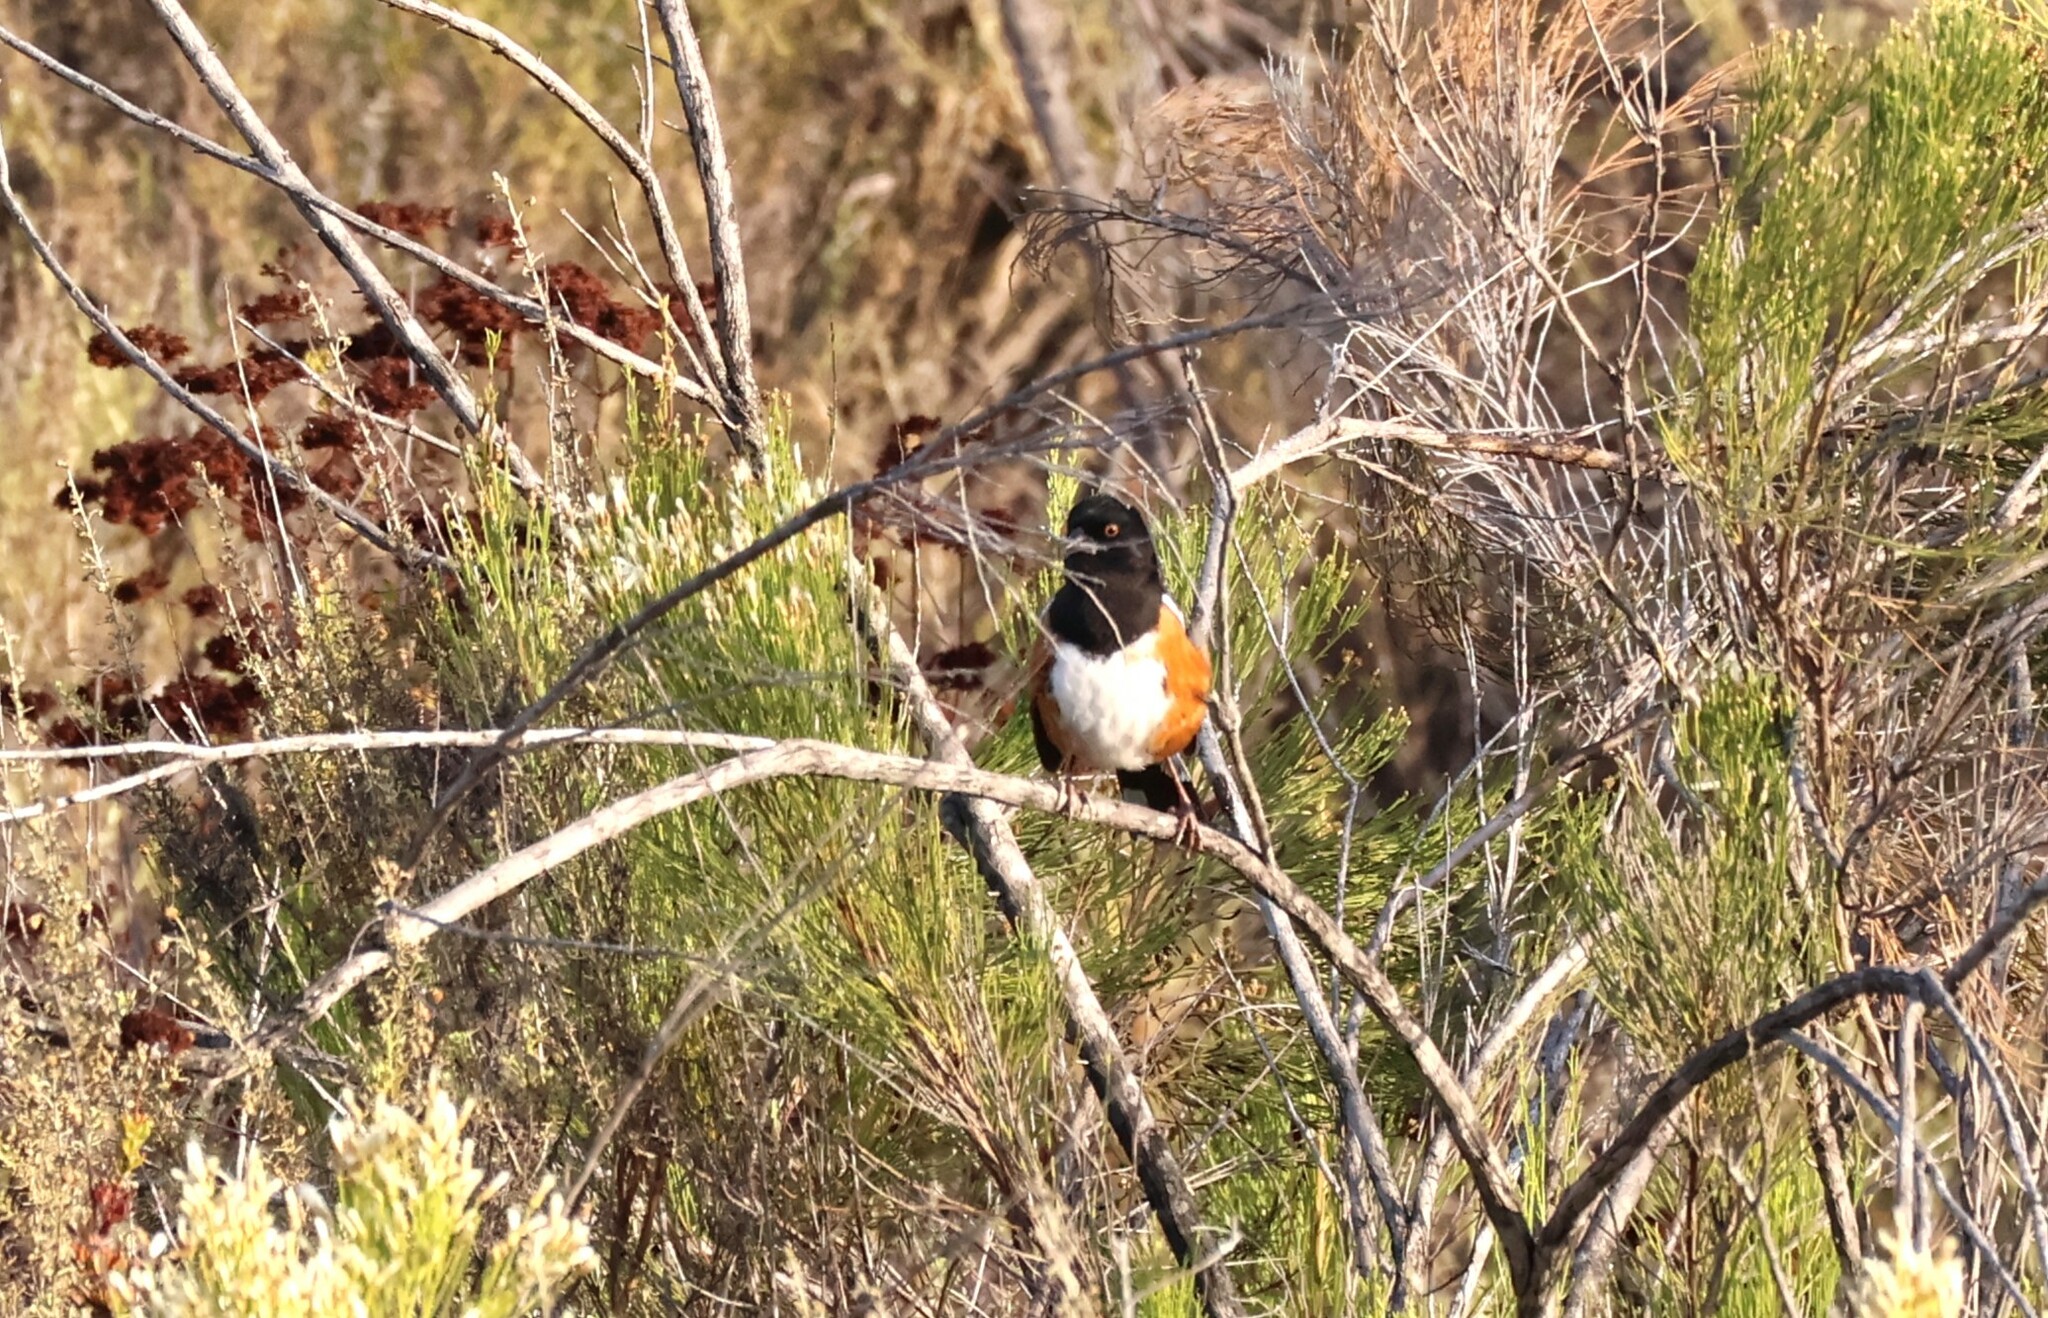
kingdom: Animalia
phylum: Chordata
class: Aves
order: Passeriformes
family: Passerellidae
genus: Pipilo
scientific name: Pipilo maculatus
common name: Spotted towhee
